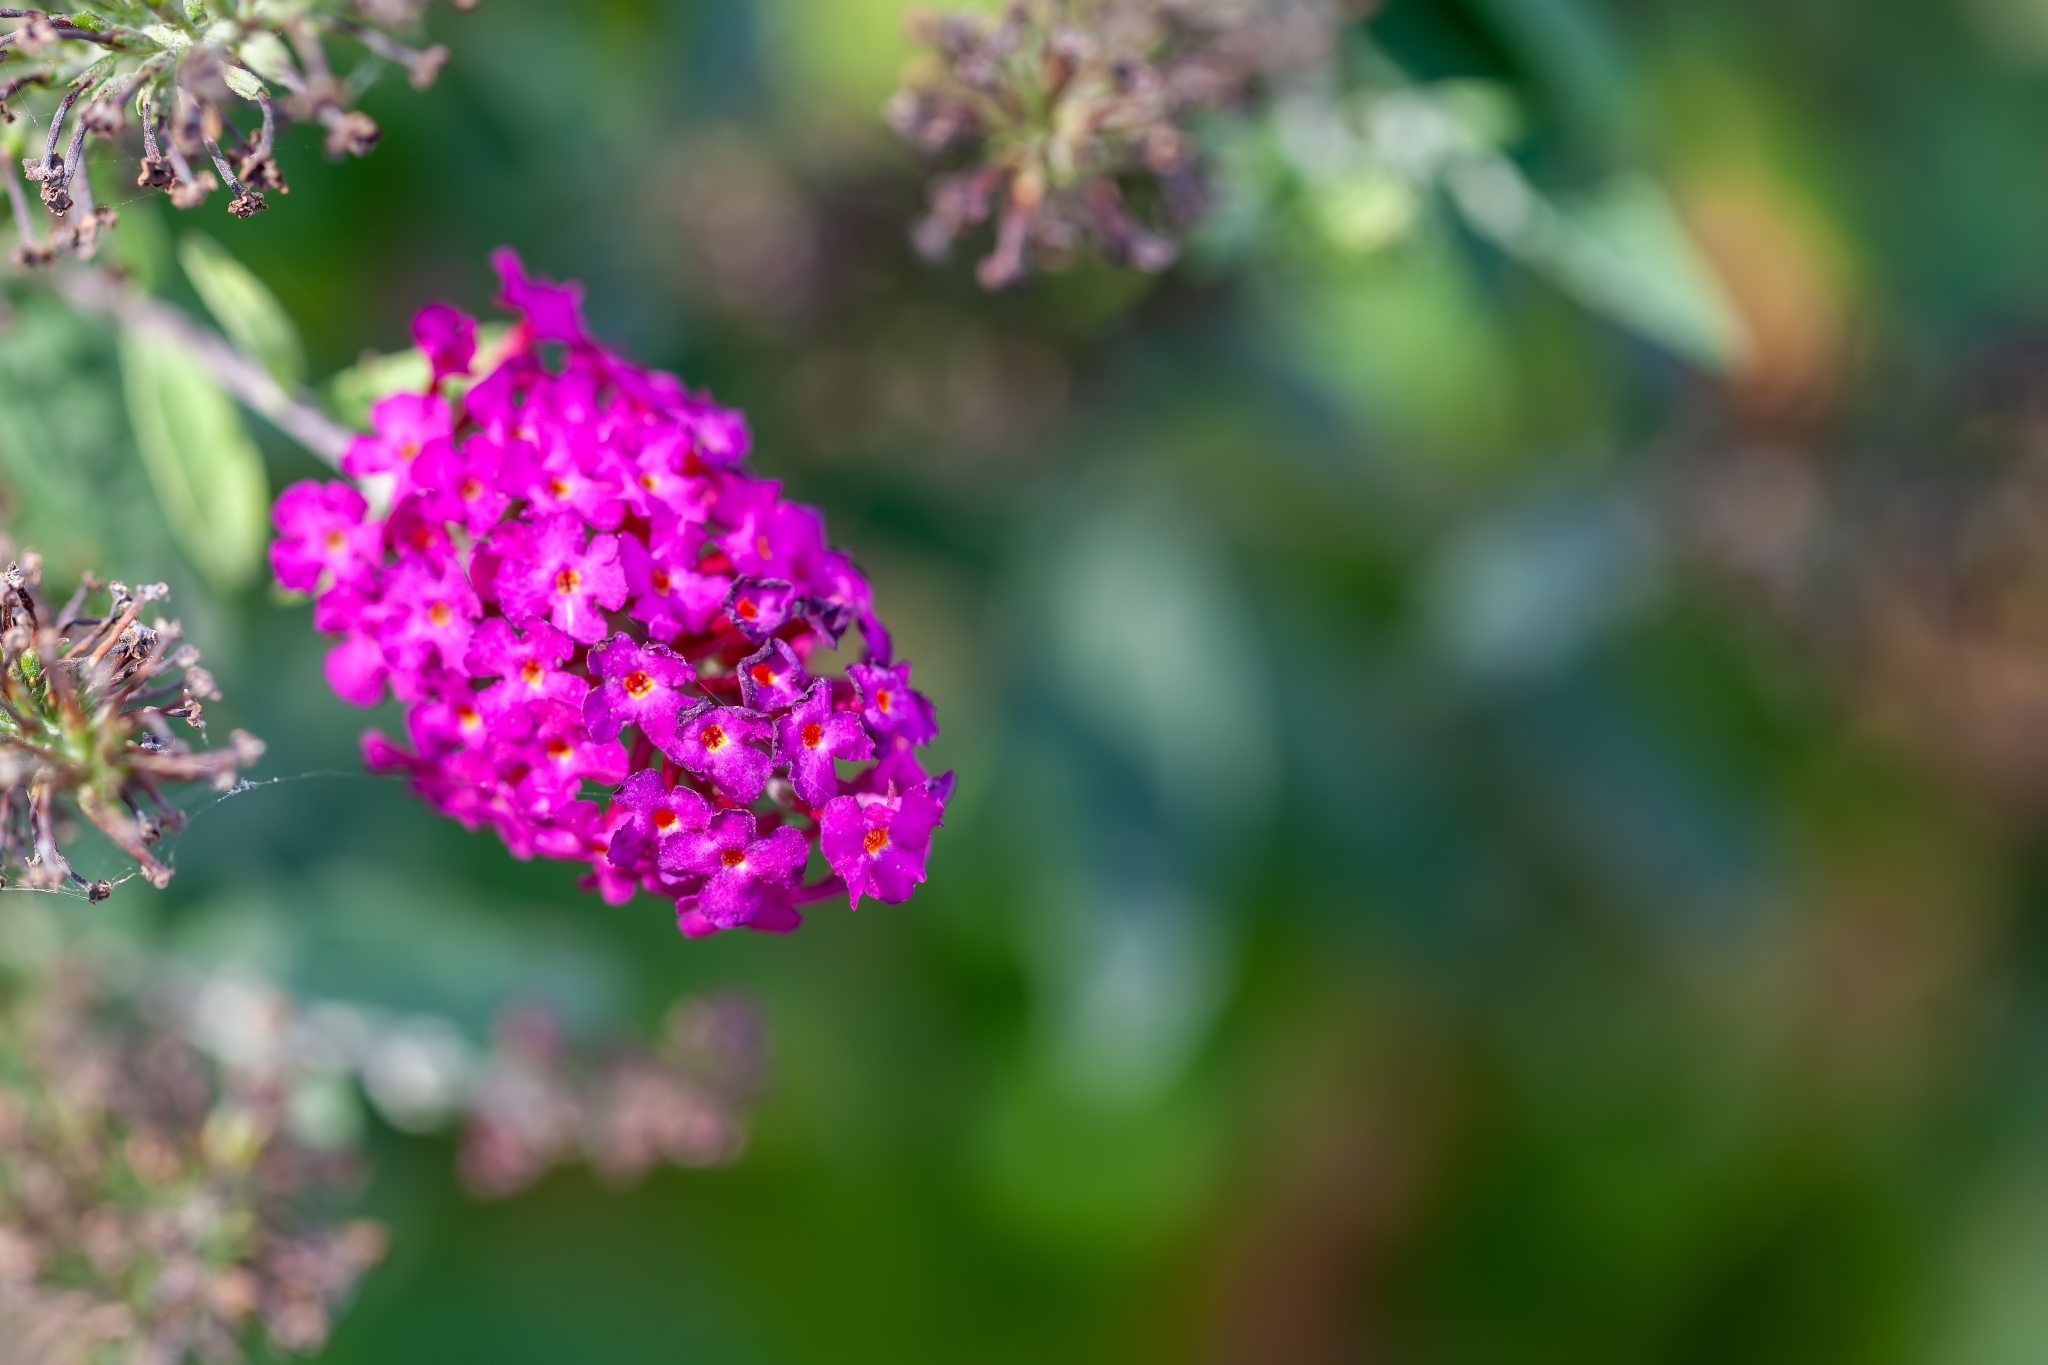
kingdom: Plantae
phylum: Tracheophyta
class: Magnoliopsida
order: Lamiales
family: Scrophulariaceae
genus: Buddleja
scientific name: Buddleja davidii
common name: Butterfly-bush
